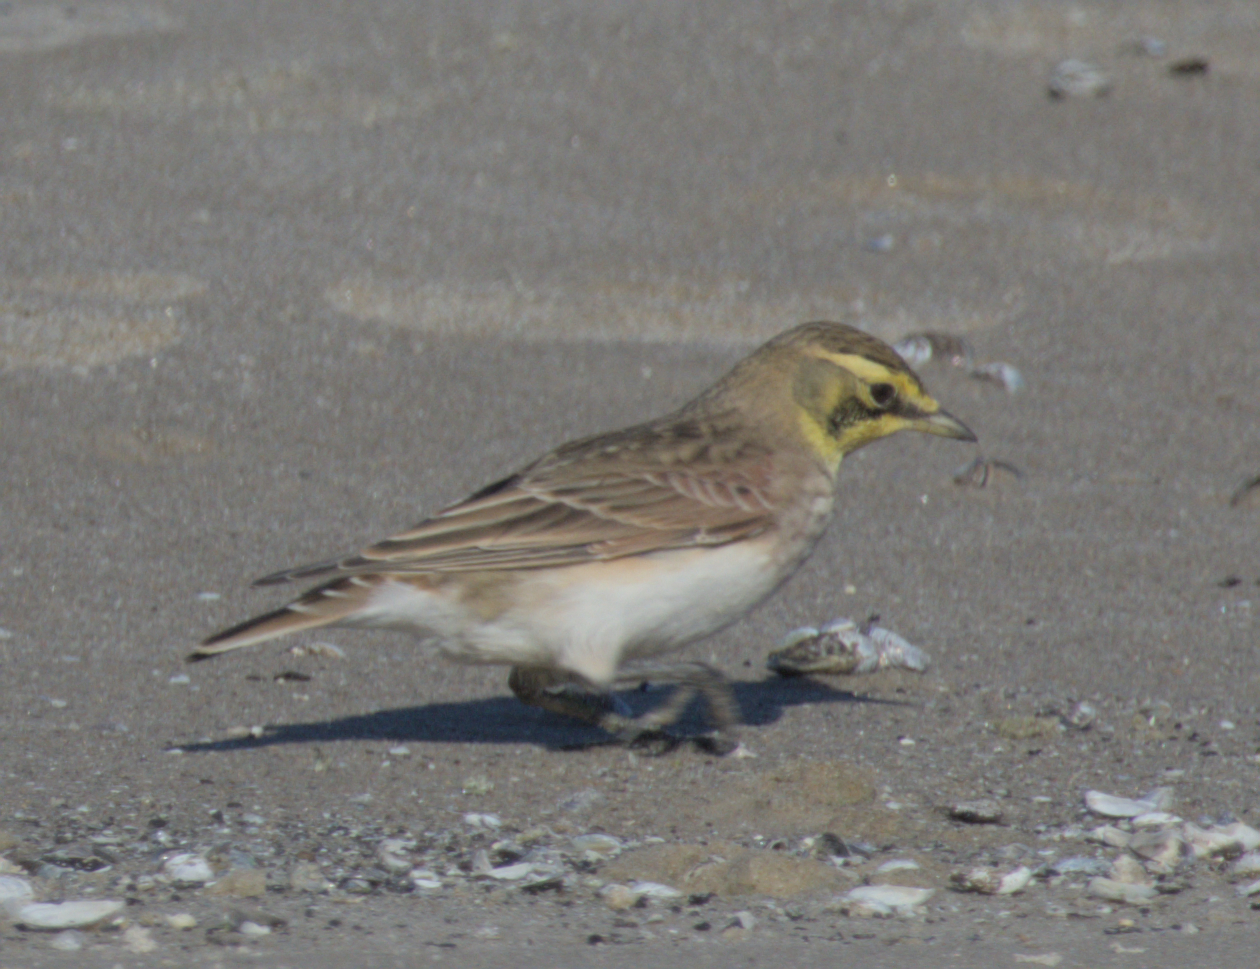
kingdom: Animalia
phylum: Chordata
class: Aves
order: Passeriformes
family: Alaudidae
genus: Eremophila
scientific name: Eremophila alpestris
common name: Horned lark
